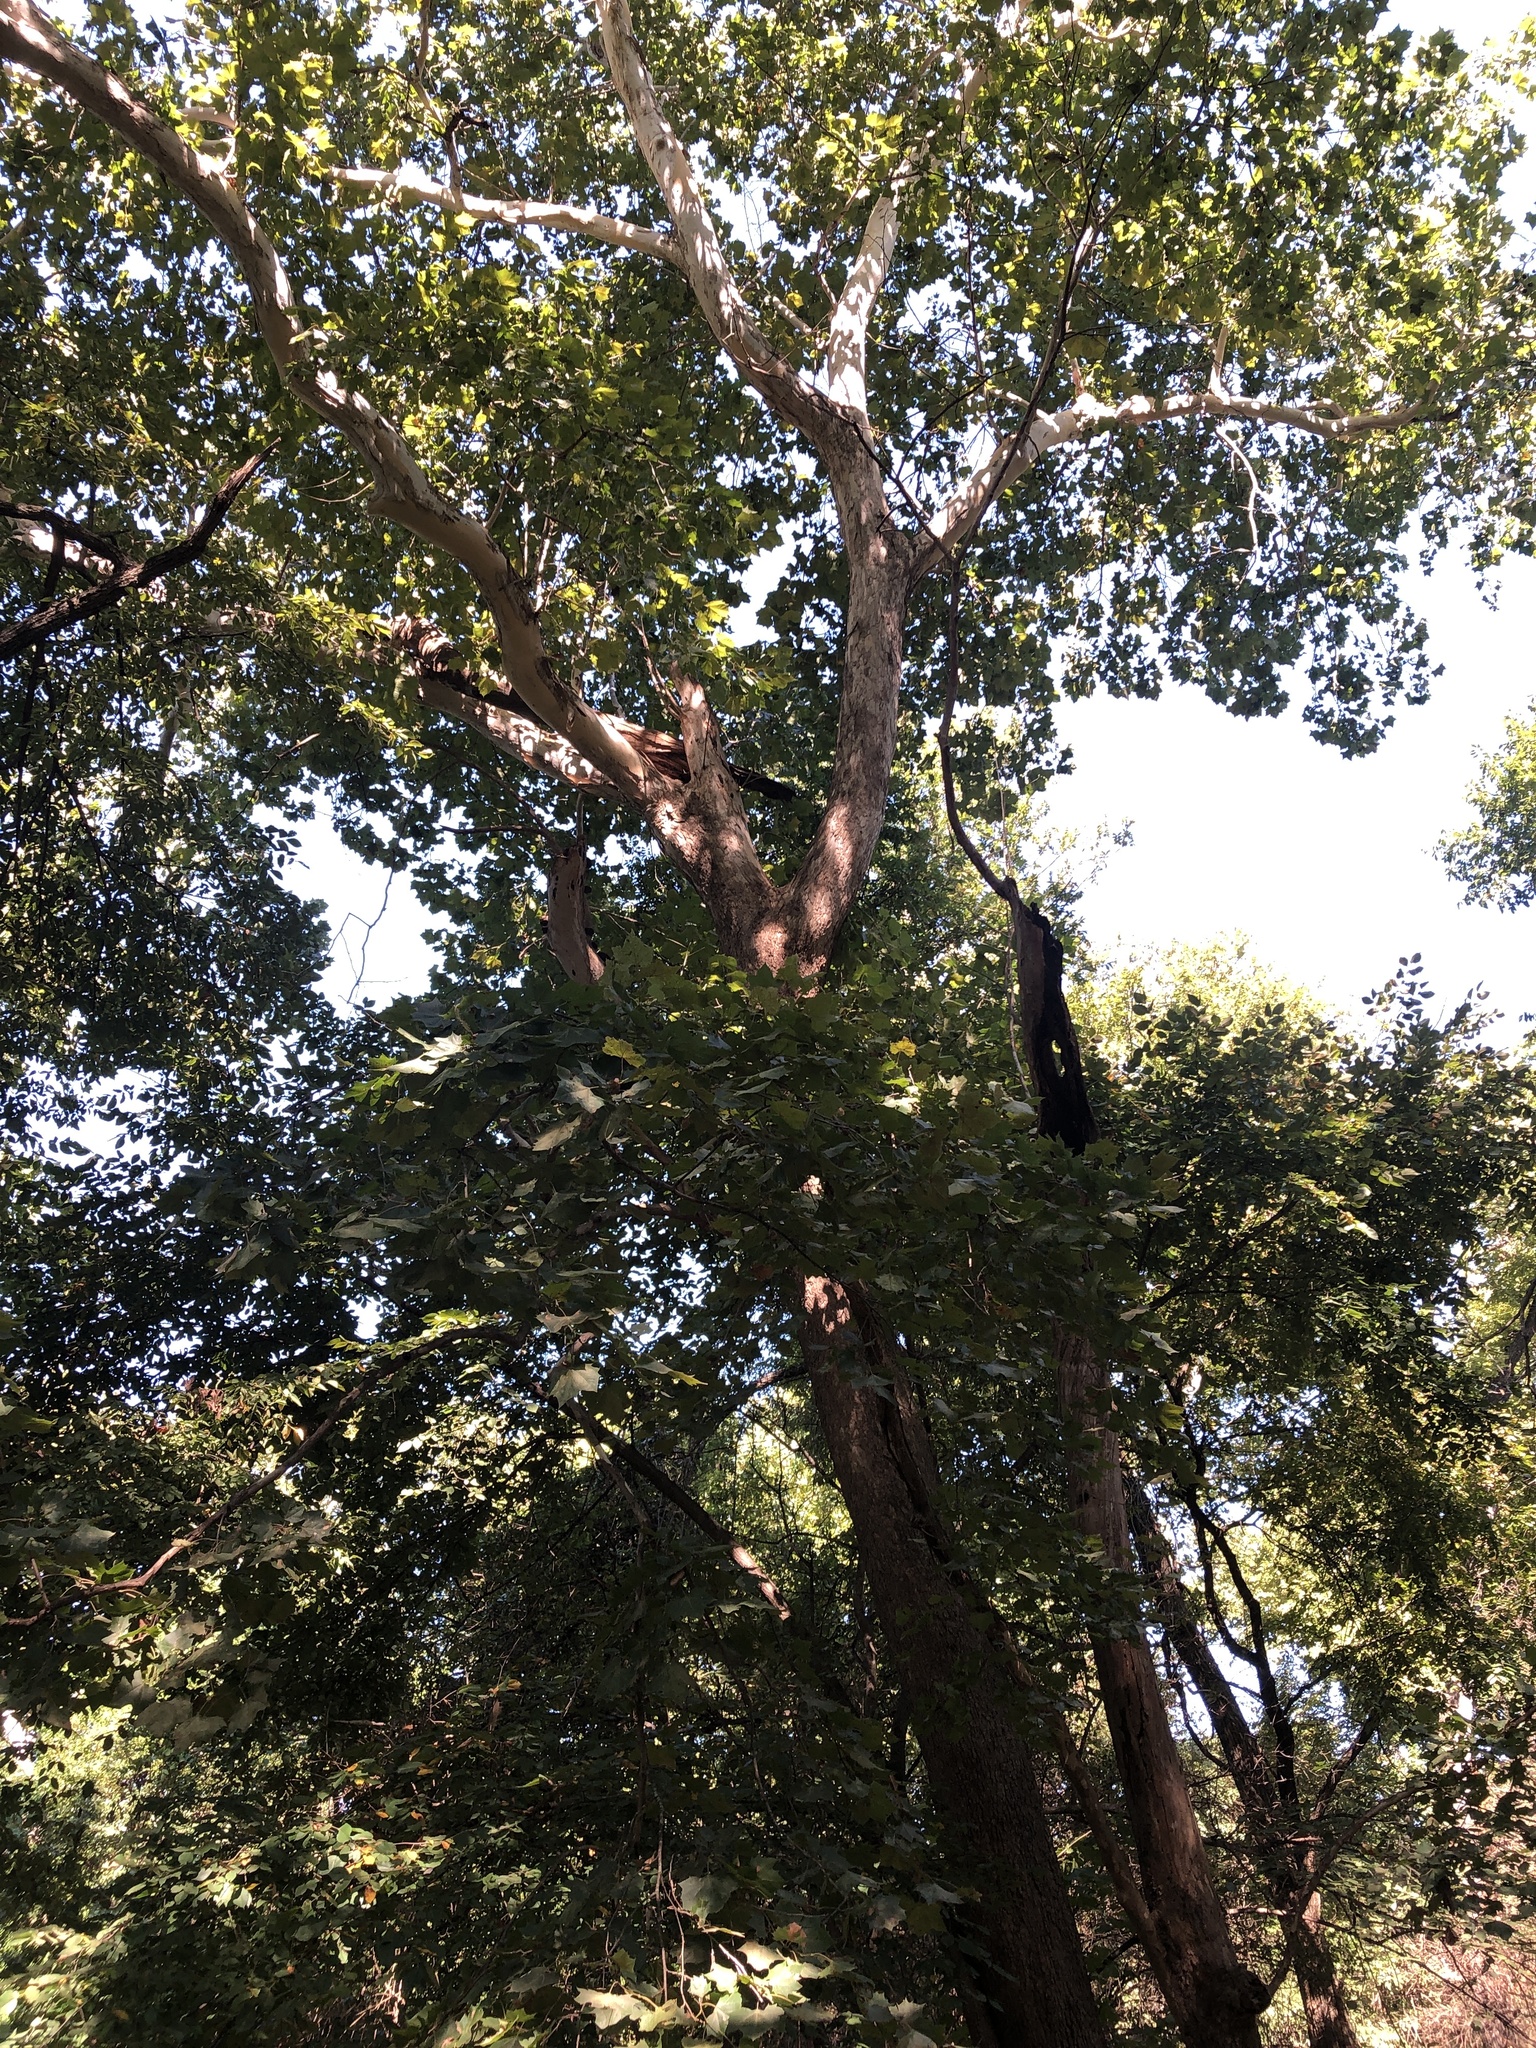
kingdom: Plantae
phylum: Tracheophyta
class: Magnoliopsida
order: Proteales
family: Platanaceae
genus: Platanus
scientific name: Platanus occidentalis
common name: American sycamore
